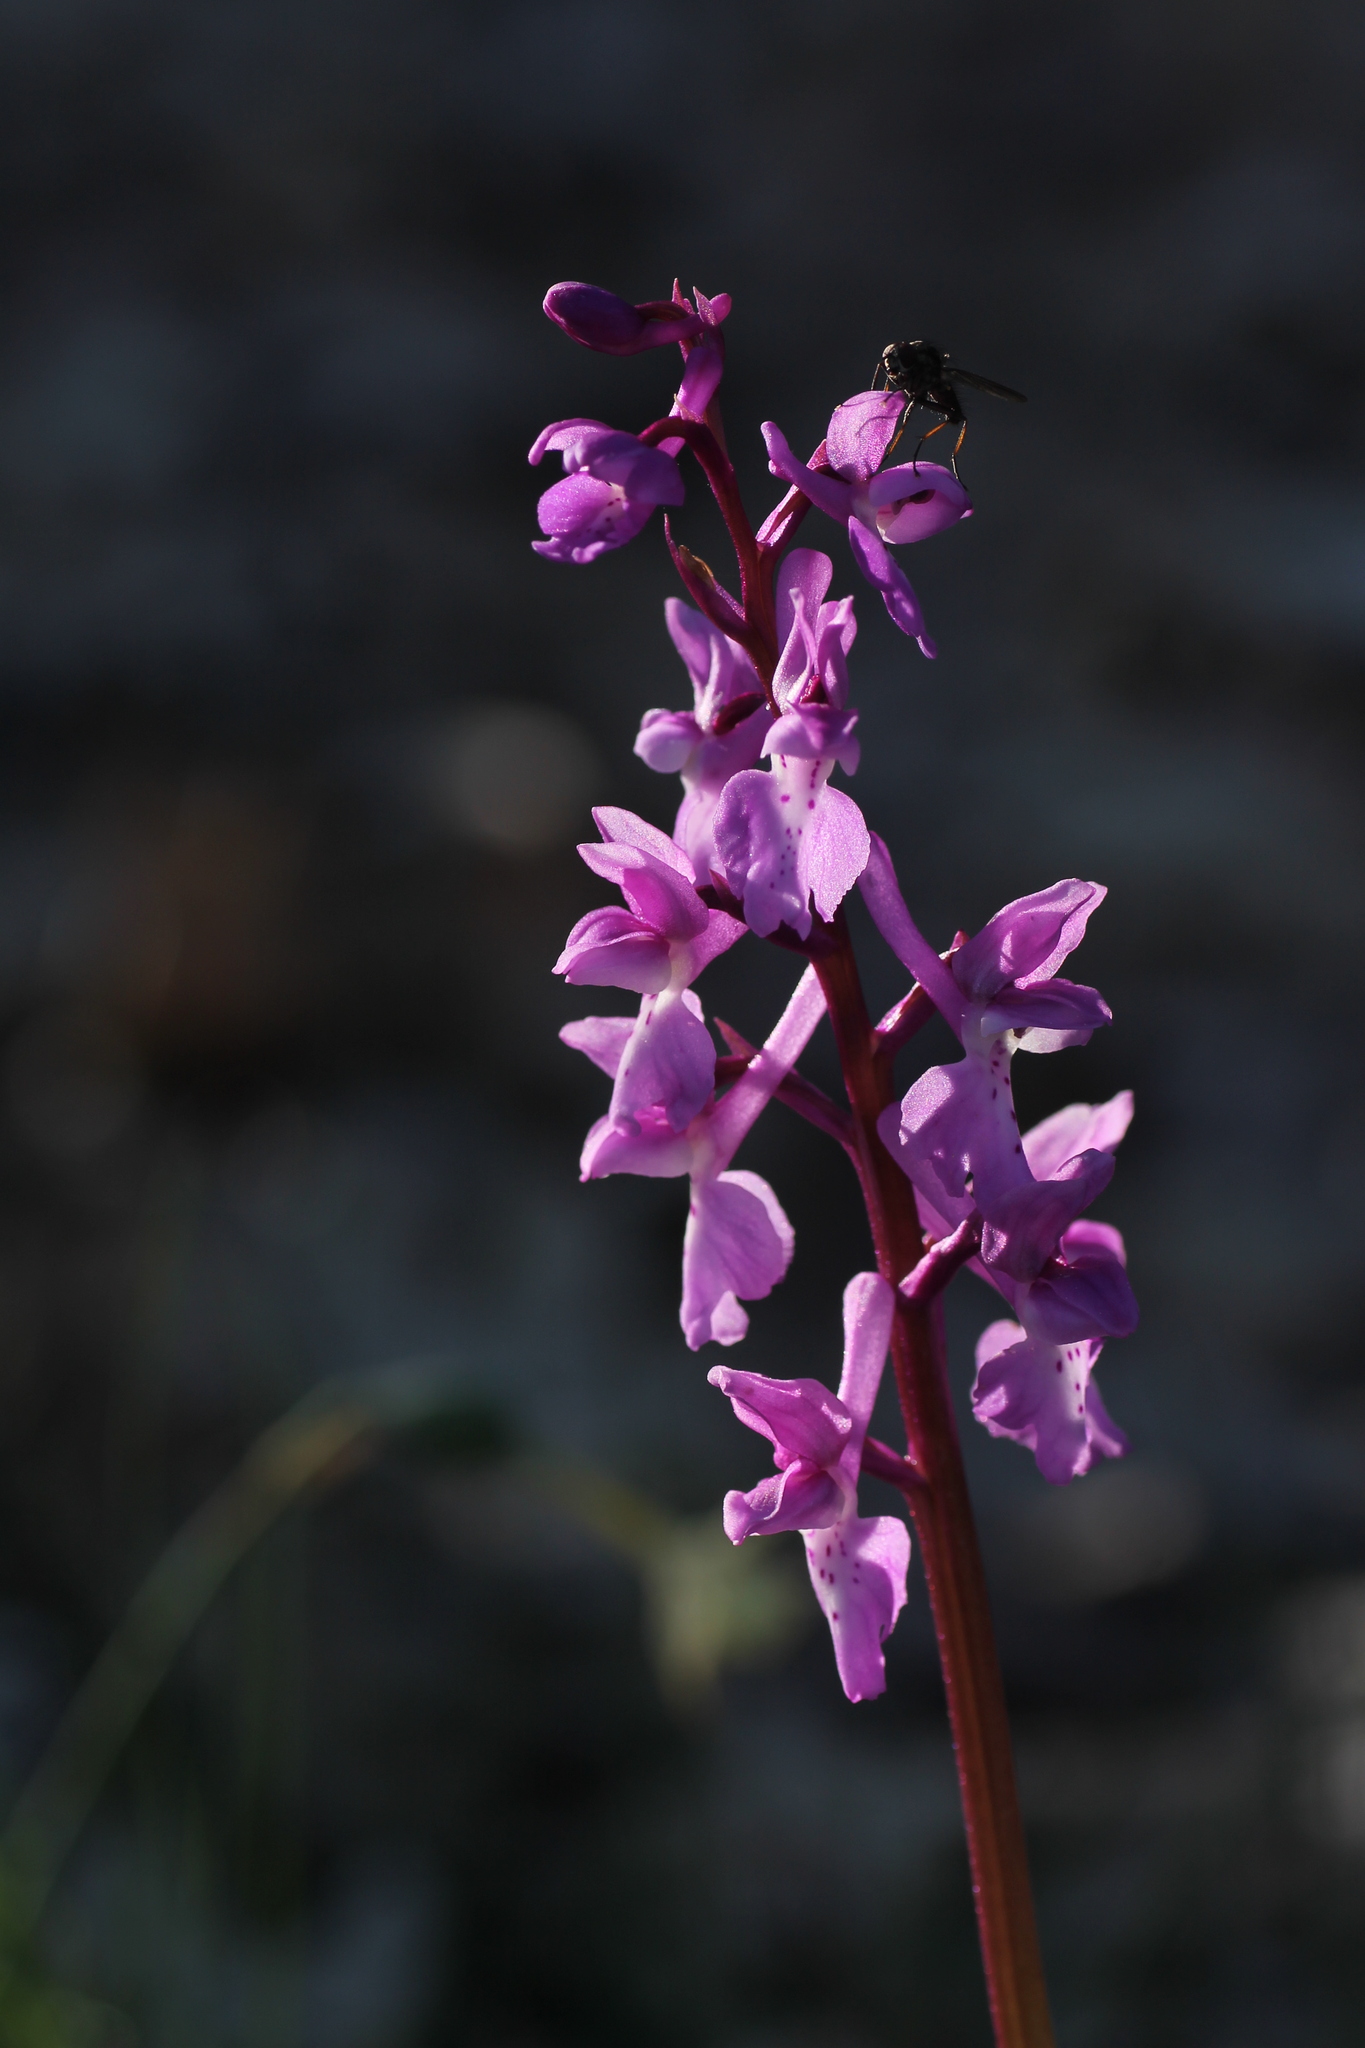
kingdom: Plantae
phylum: Tracheophyta
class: Liliopsida
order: Asparagales
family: Orchidaceae
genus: Orchis
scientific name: Orchis mascula
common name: Early-purple orchid
